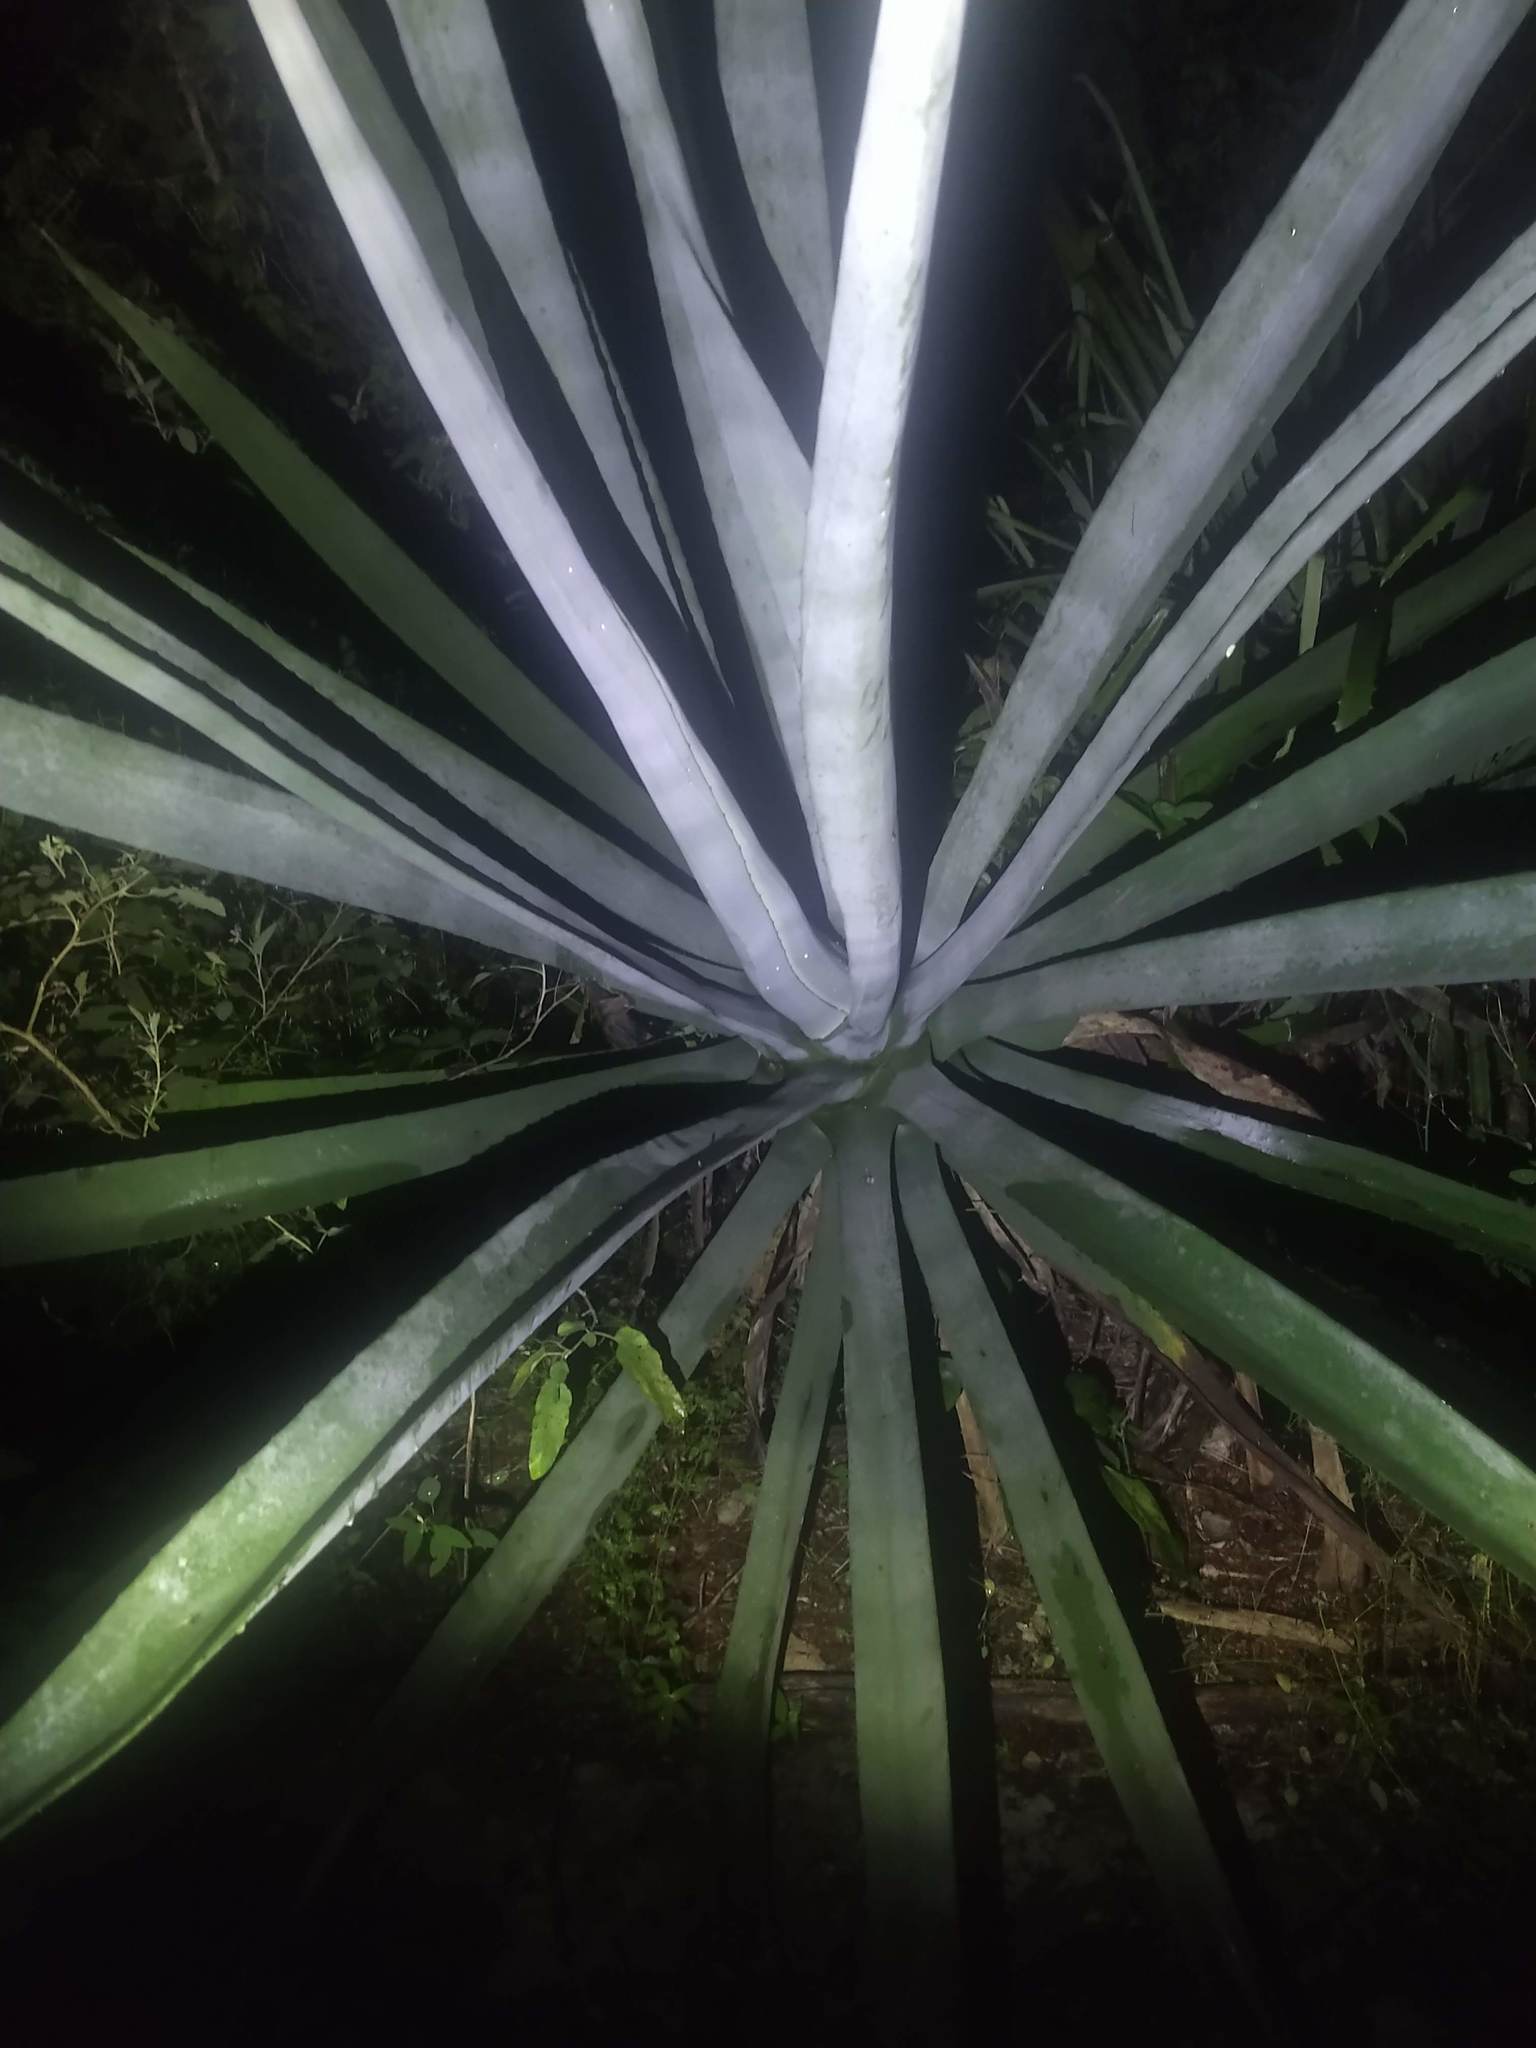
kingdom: Plantae
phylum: Tracheophyta
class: Liliopsida
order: Asparagales
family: Asparagaceae
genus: Agave
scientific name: Agave fourcroydes
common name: Henequen
